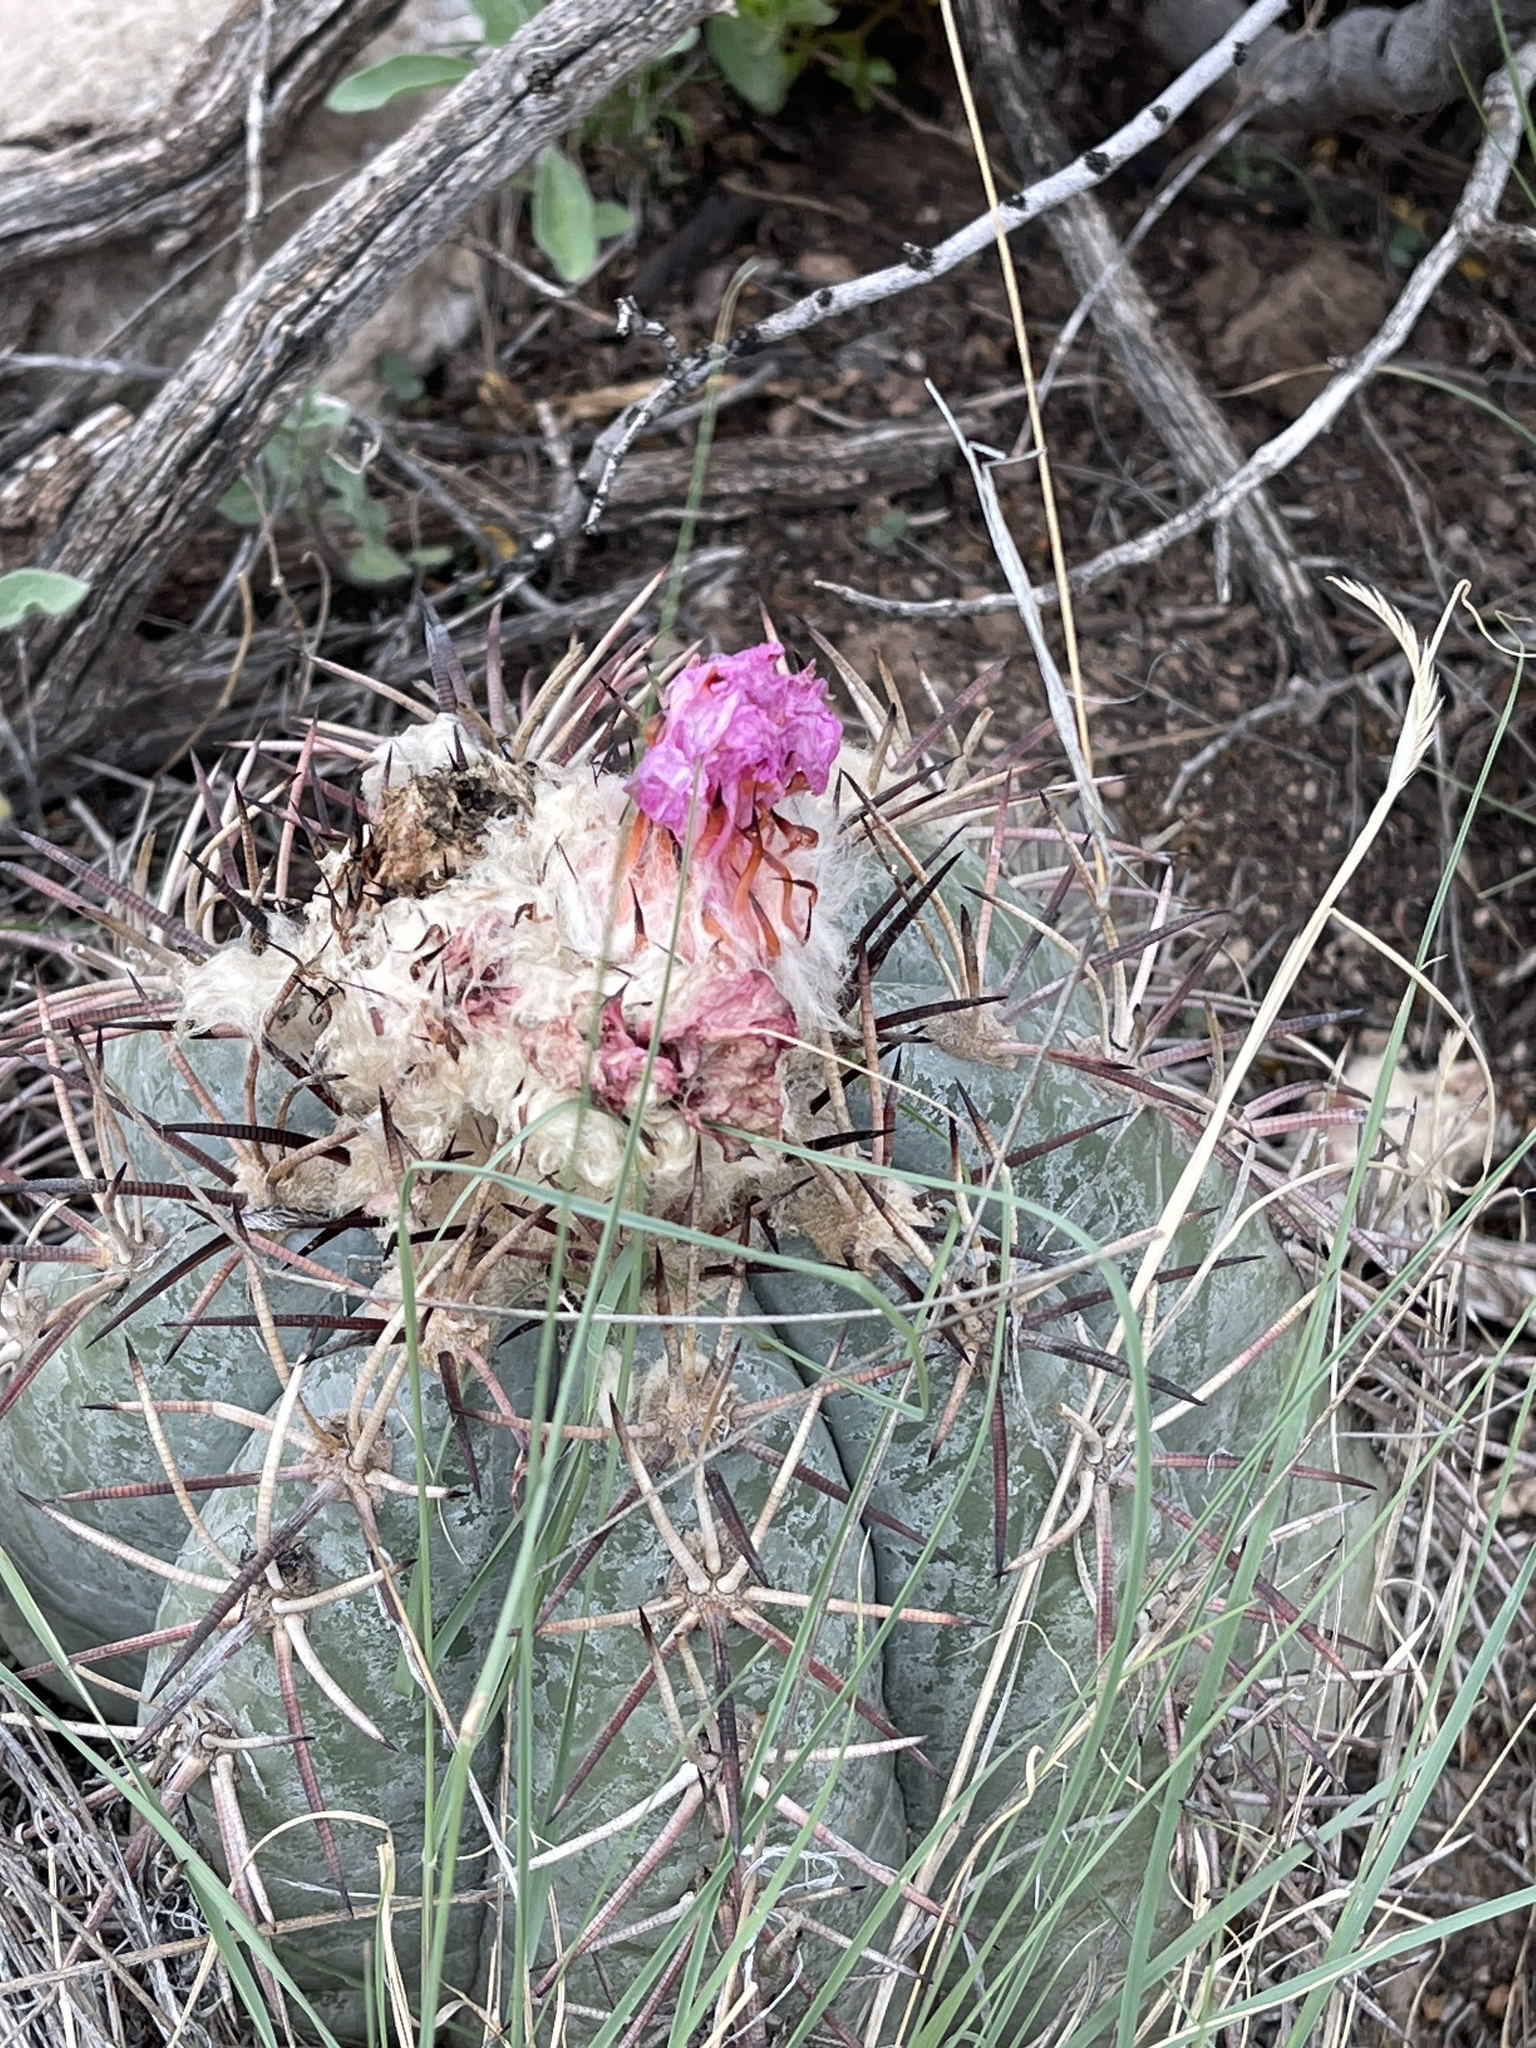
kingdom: Plantae
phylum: Tracheophyta
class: Magnoliopsida
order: Caryophyllales
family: Cactaceae
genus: Echinocactus
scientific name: Echinocactus horizonthalonius
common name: Devilshead
